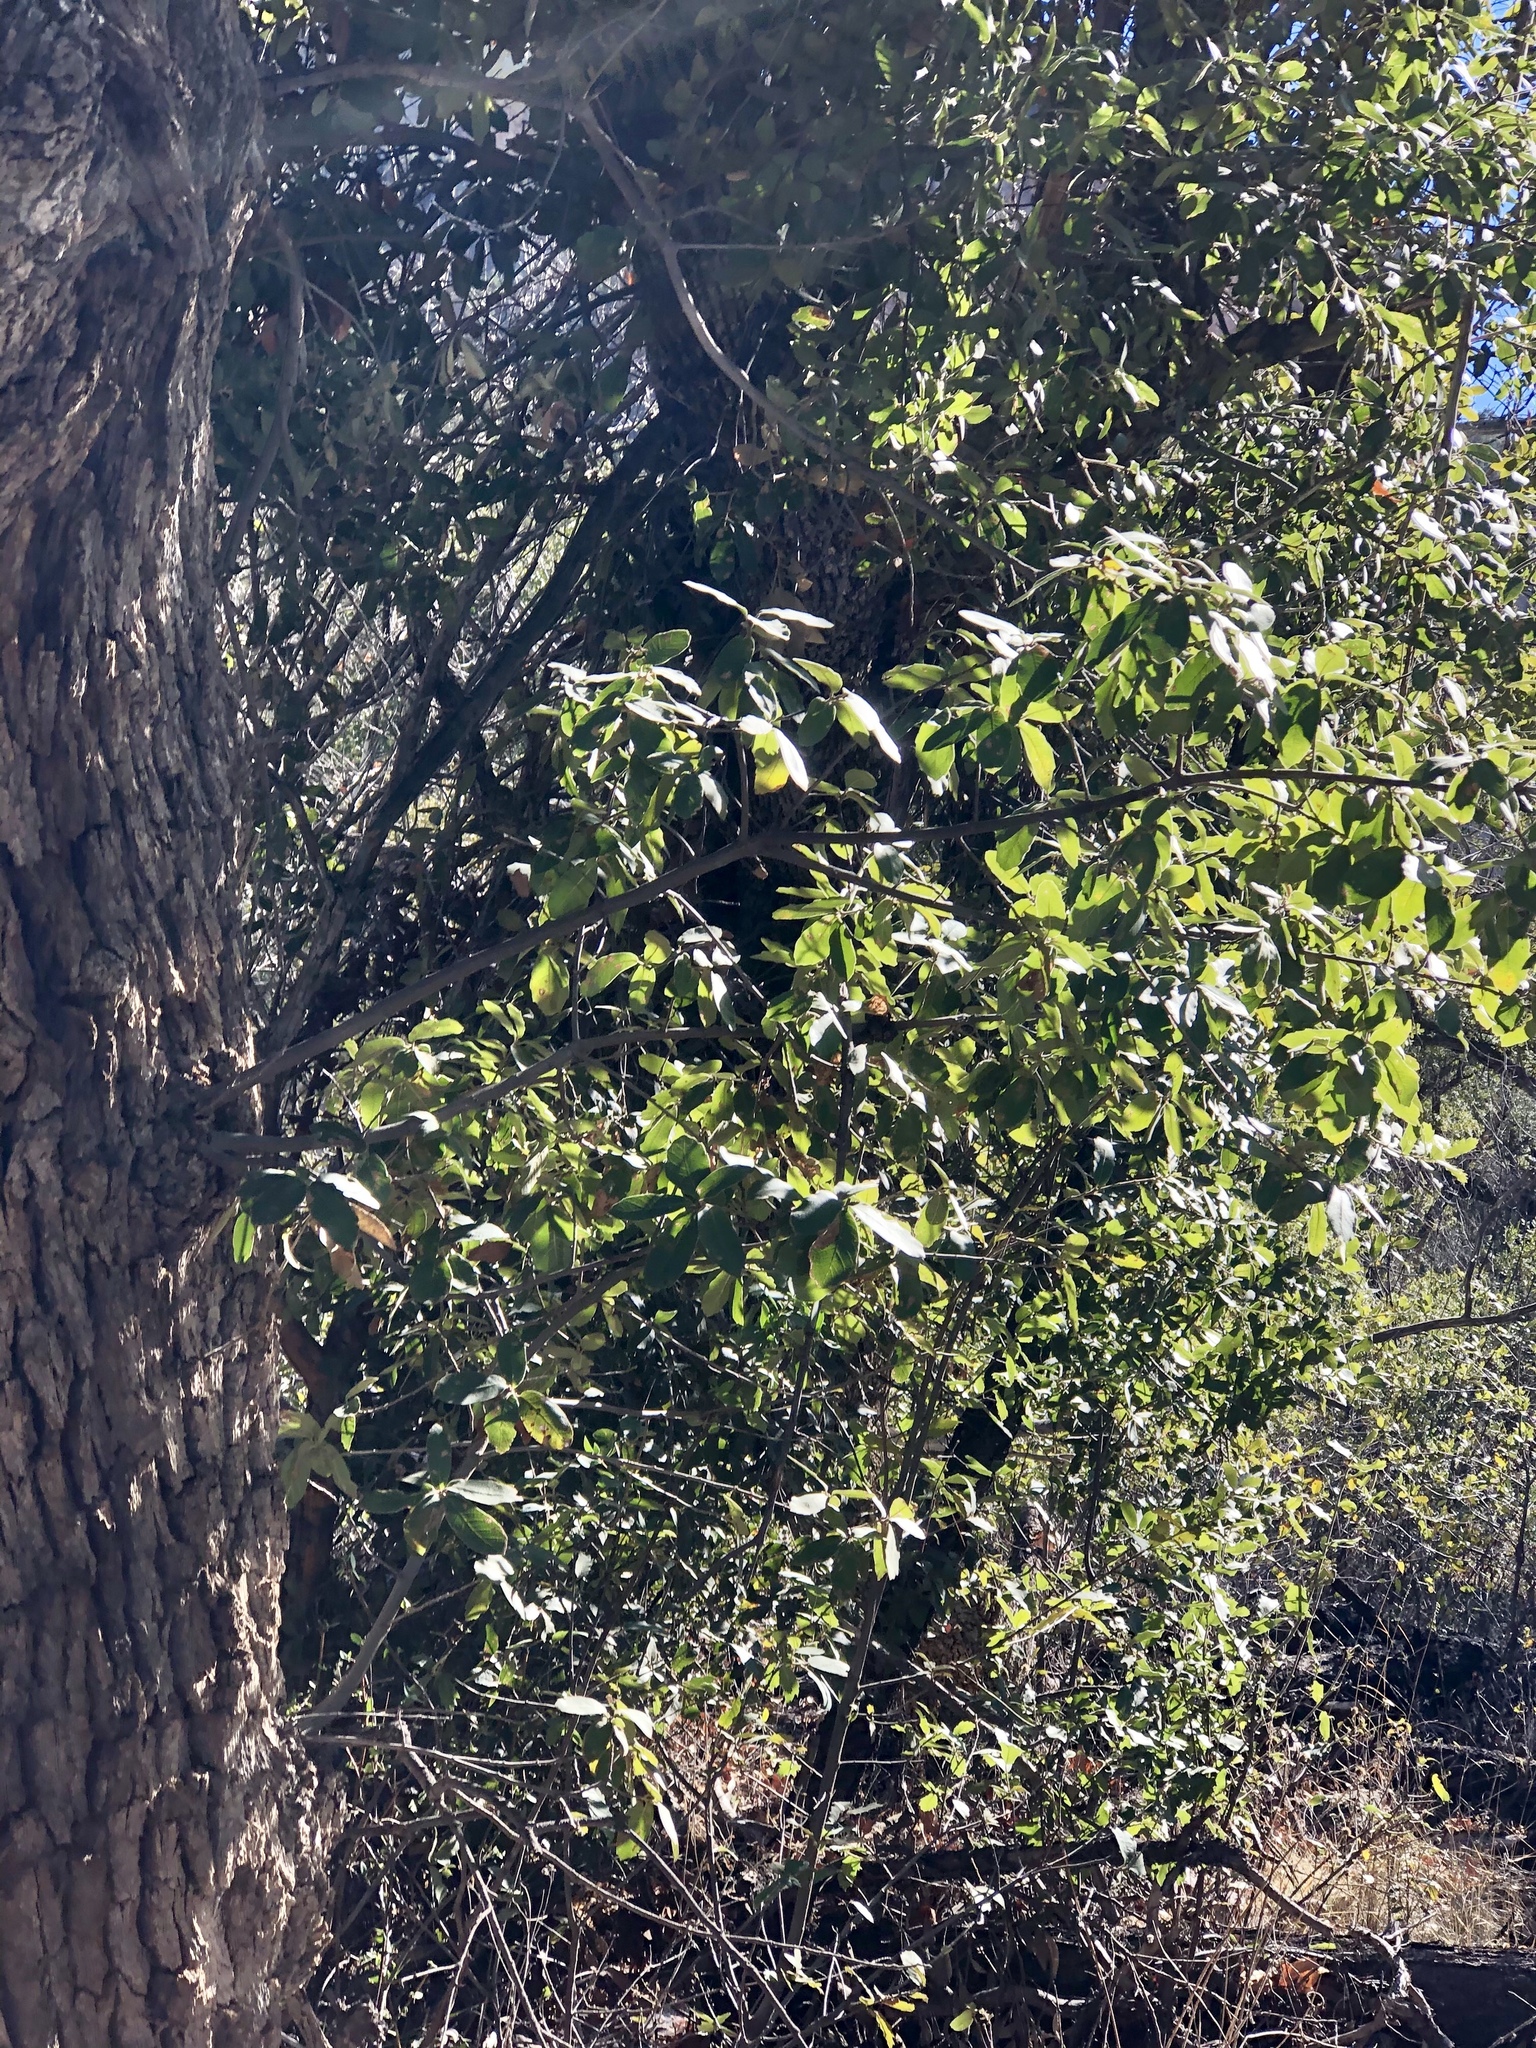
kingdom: Plantae
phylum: Tracheophyta
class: Magnoliopsida
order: Fagales
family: Fagaceae
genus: Quercus
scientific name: Quercus arizonica
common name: Arizona white oak
